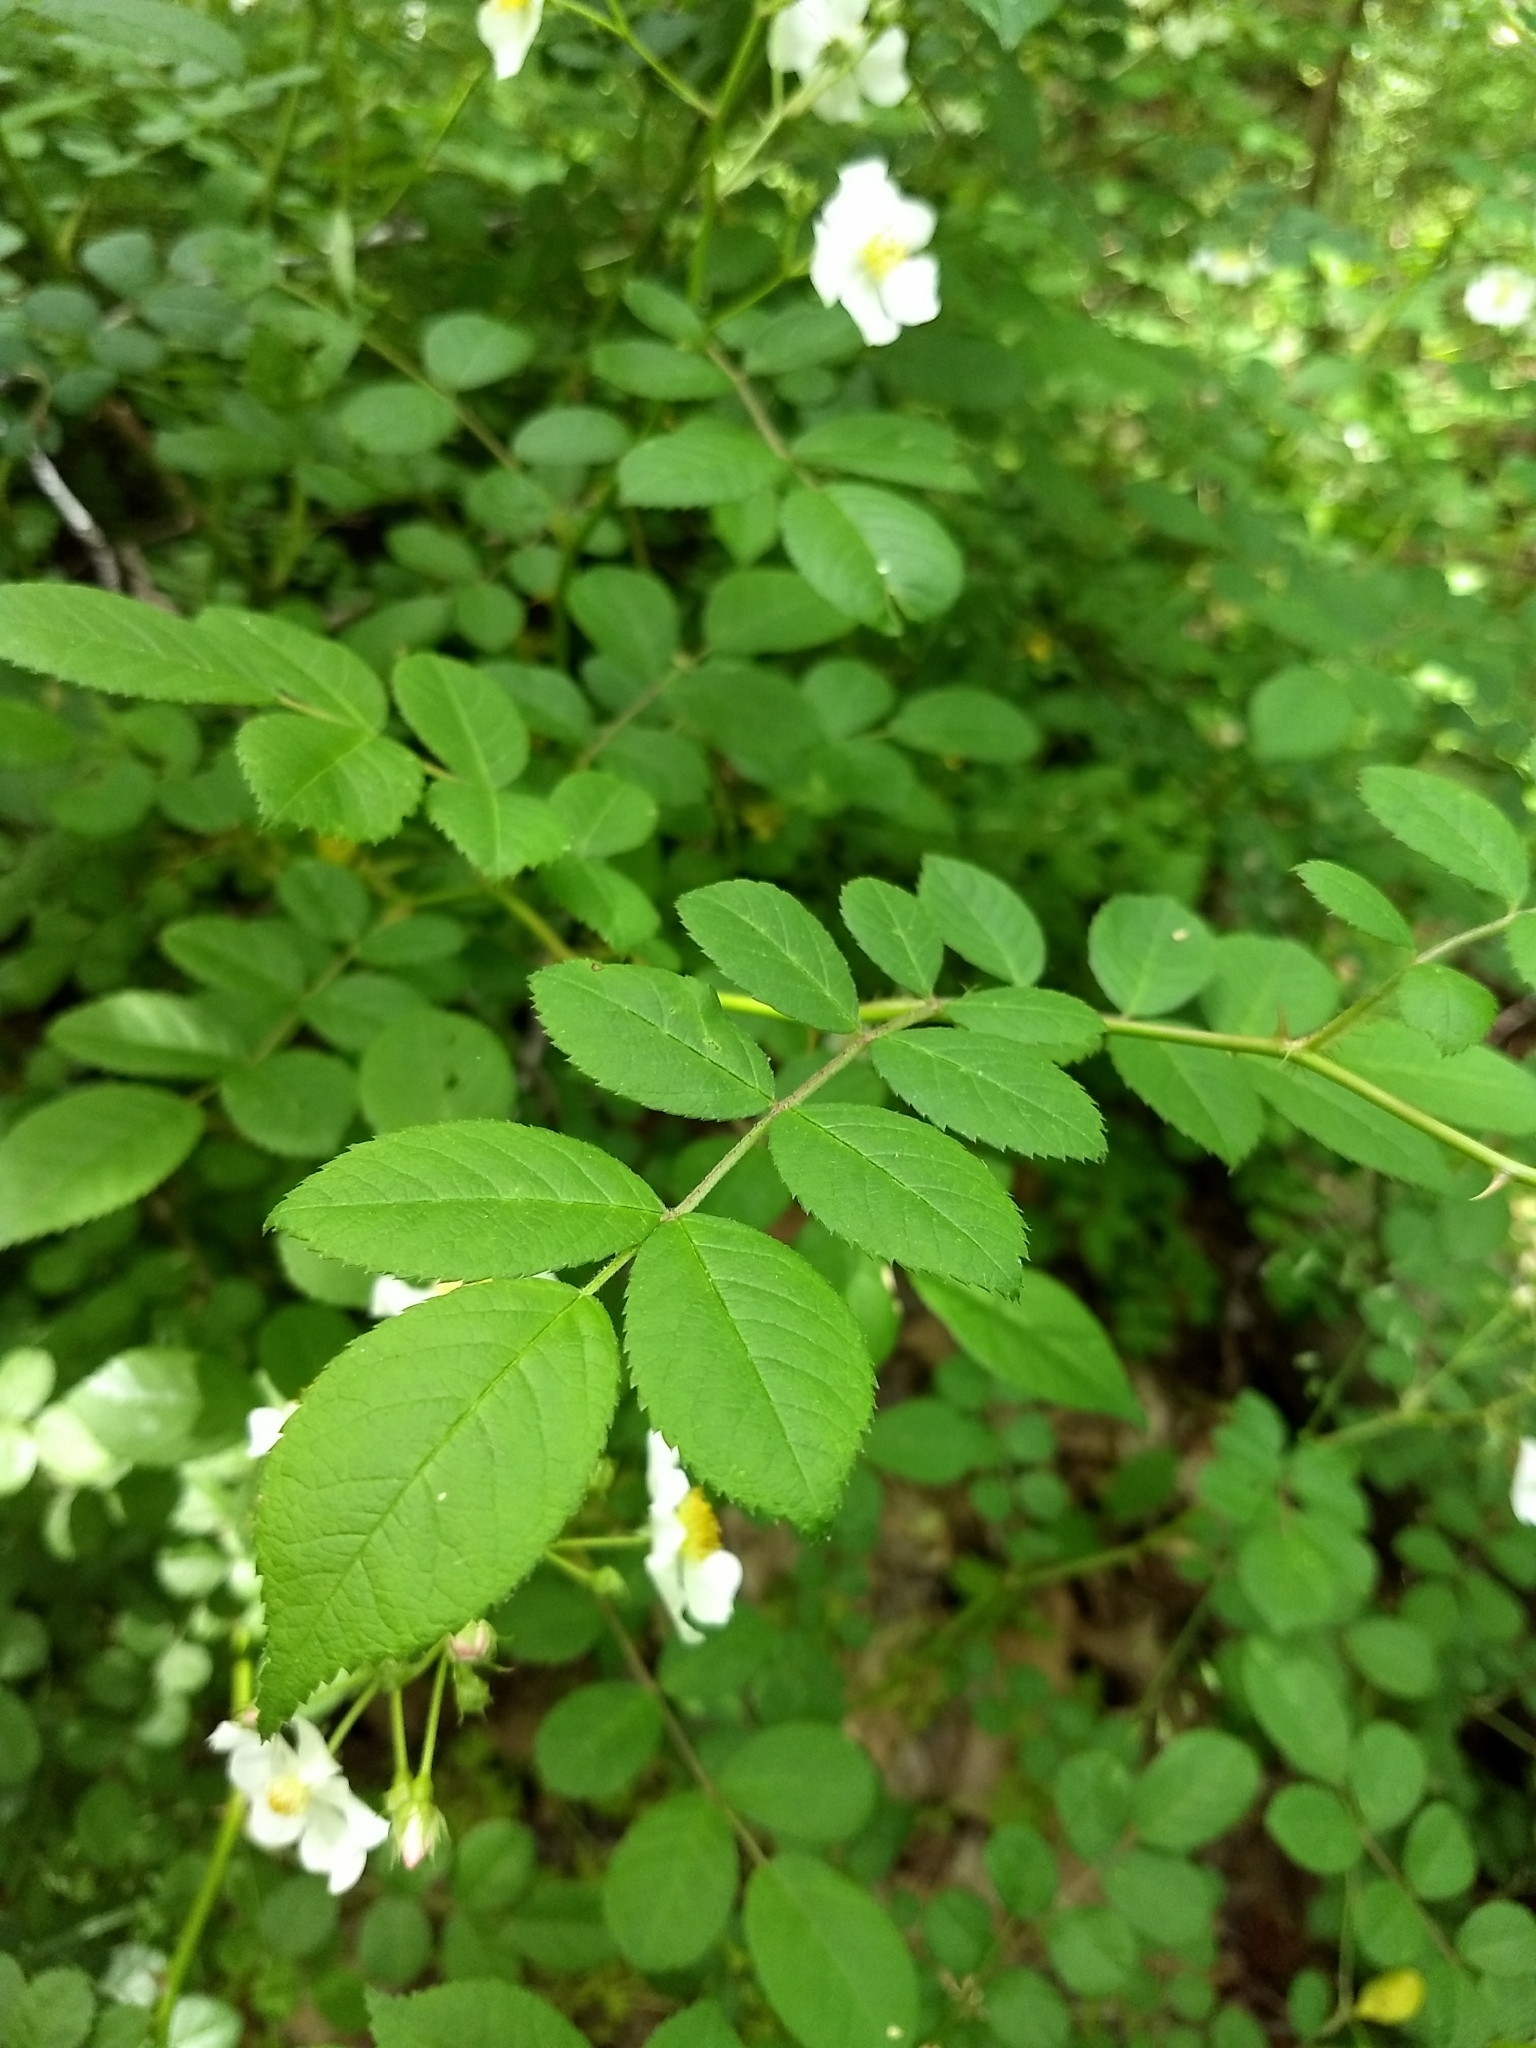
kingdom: Plantae
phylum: Tracheophyta
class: Magnoliopsida
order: Rosales
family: Rosaceae
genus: Rosa
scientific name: Rosa multiflora
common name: Multiflora rose
